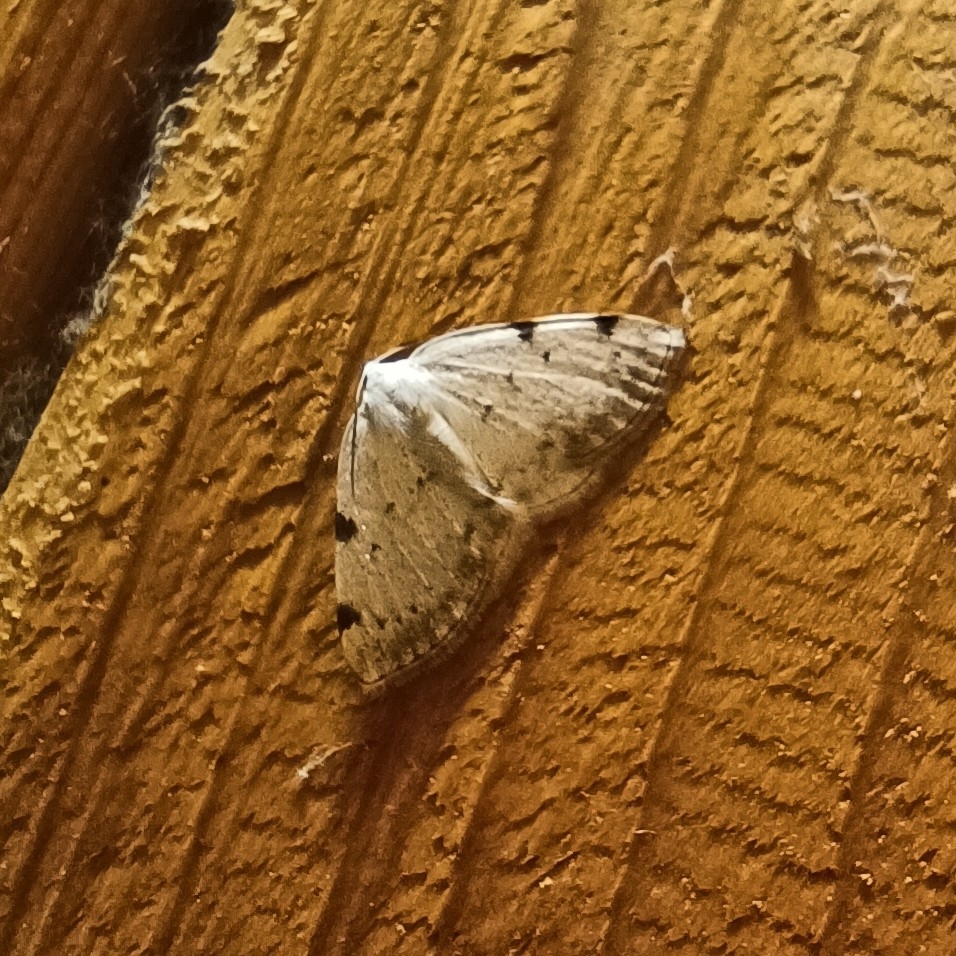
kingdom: Animalia
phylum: Arthropoda
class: Insecta
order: Lepidoptera
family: Geometridae
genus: Lomographa
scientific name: Lomographa bimaculata
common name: White-pinion spotted
